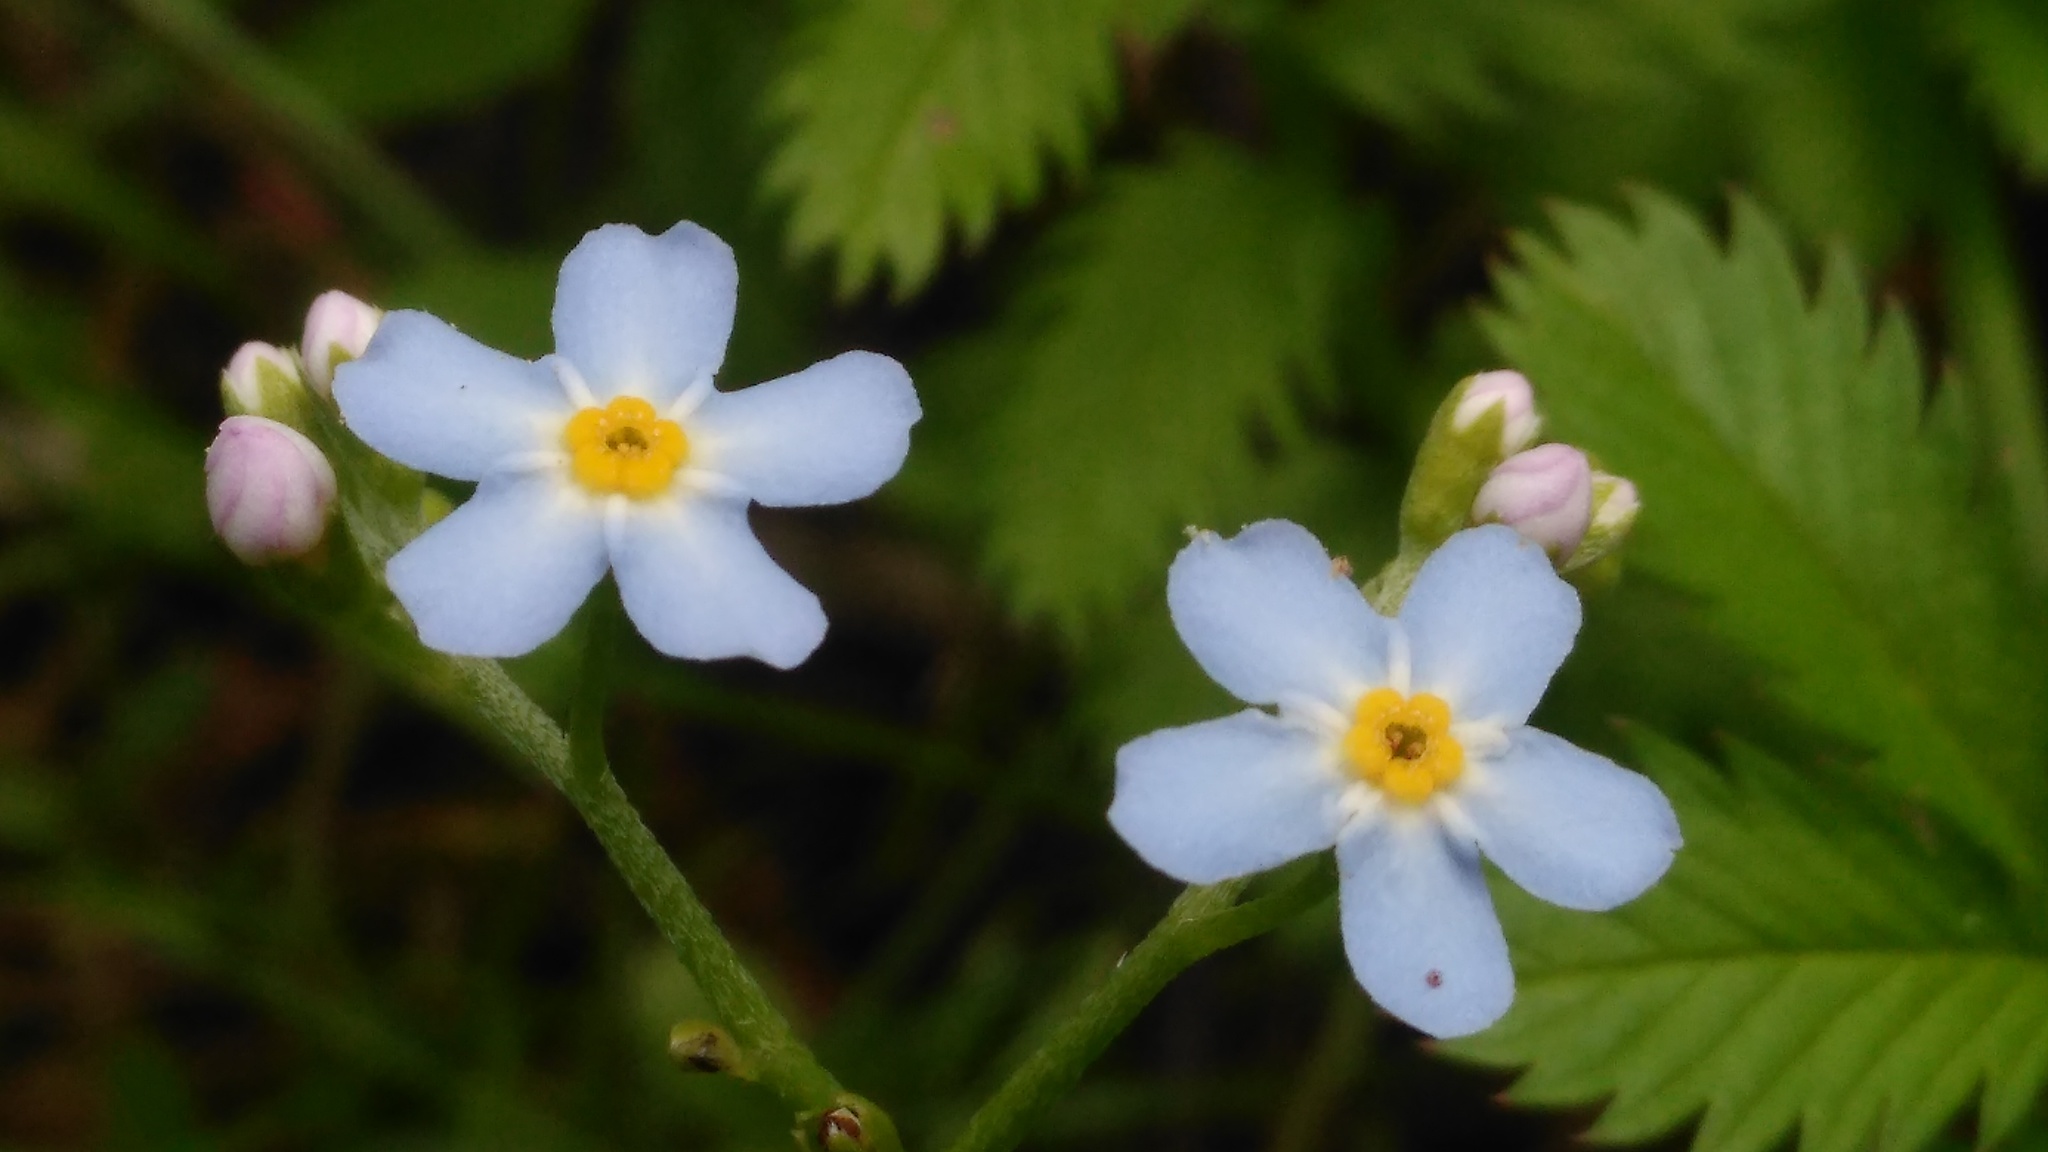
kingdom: Plantae
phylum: Tracheophyta
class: Magnoliopsida
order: Boraginales
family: Boraginaceae
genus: Myosotis
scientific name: Myosotis scorpioides
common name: Water forget-me-not
